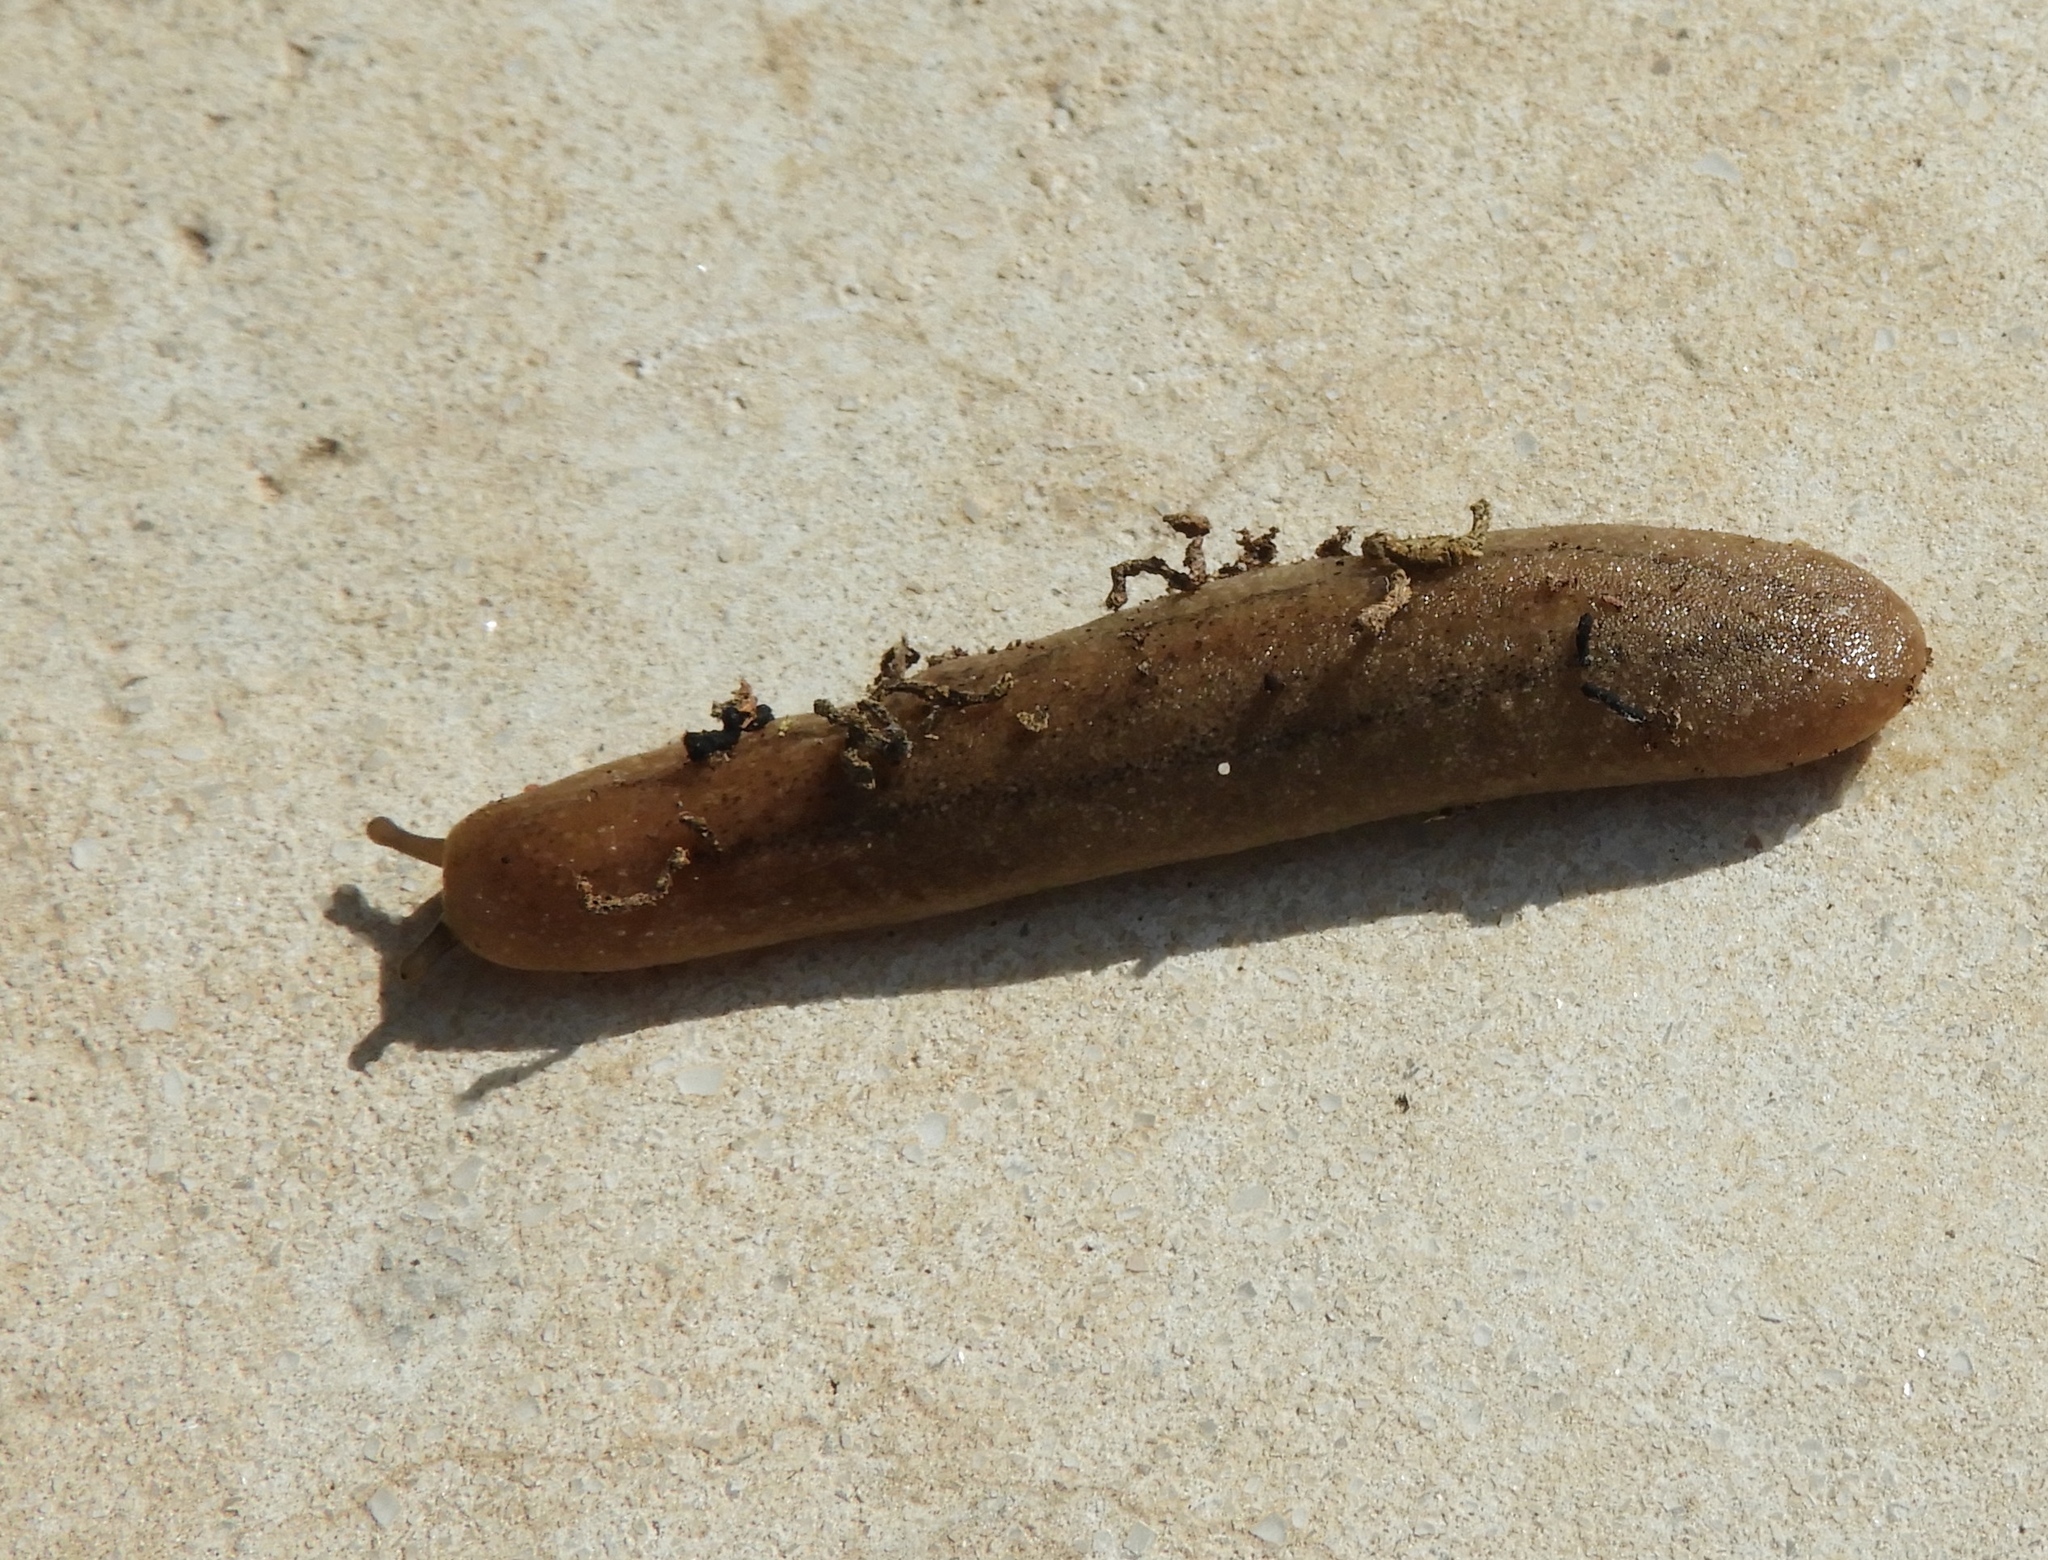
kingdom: Animalia
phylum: Mollusca
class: Gastropoda
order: Systellommatophora
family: Veronicellidae
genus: Leidyula
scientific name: Leidyula moreleti
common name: Tan leatherleaf
